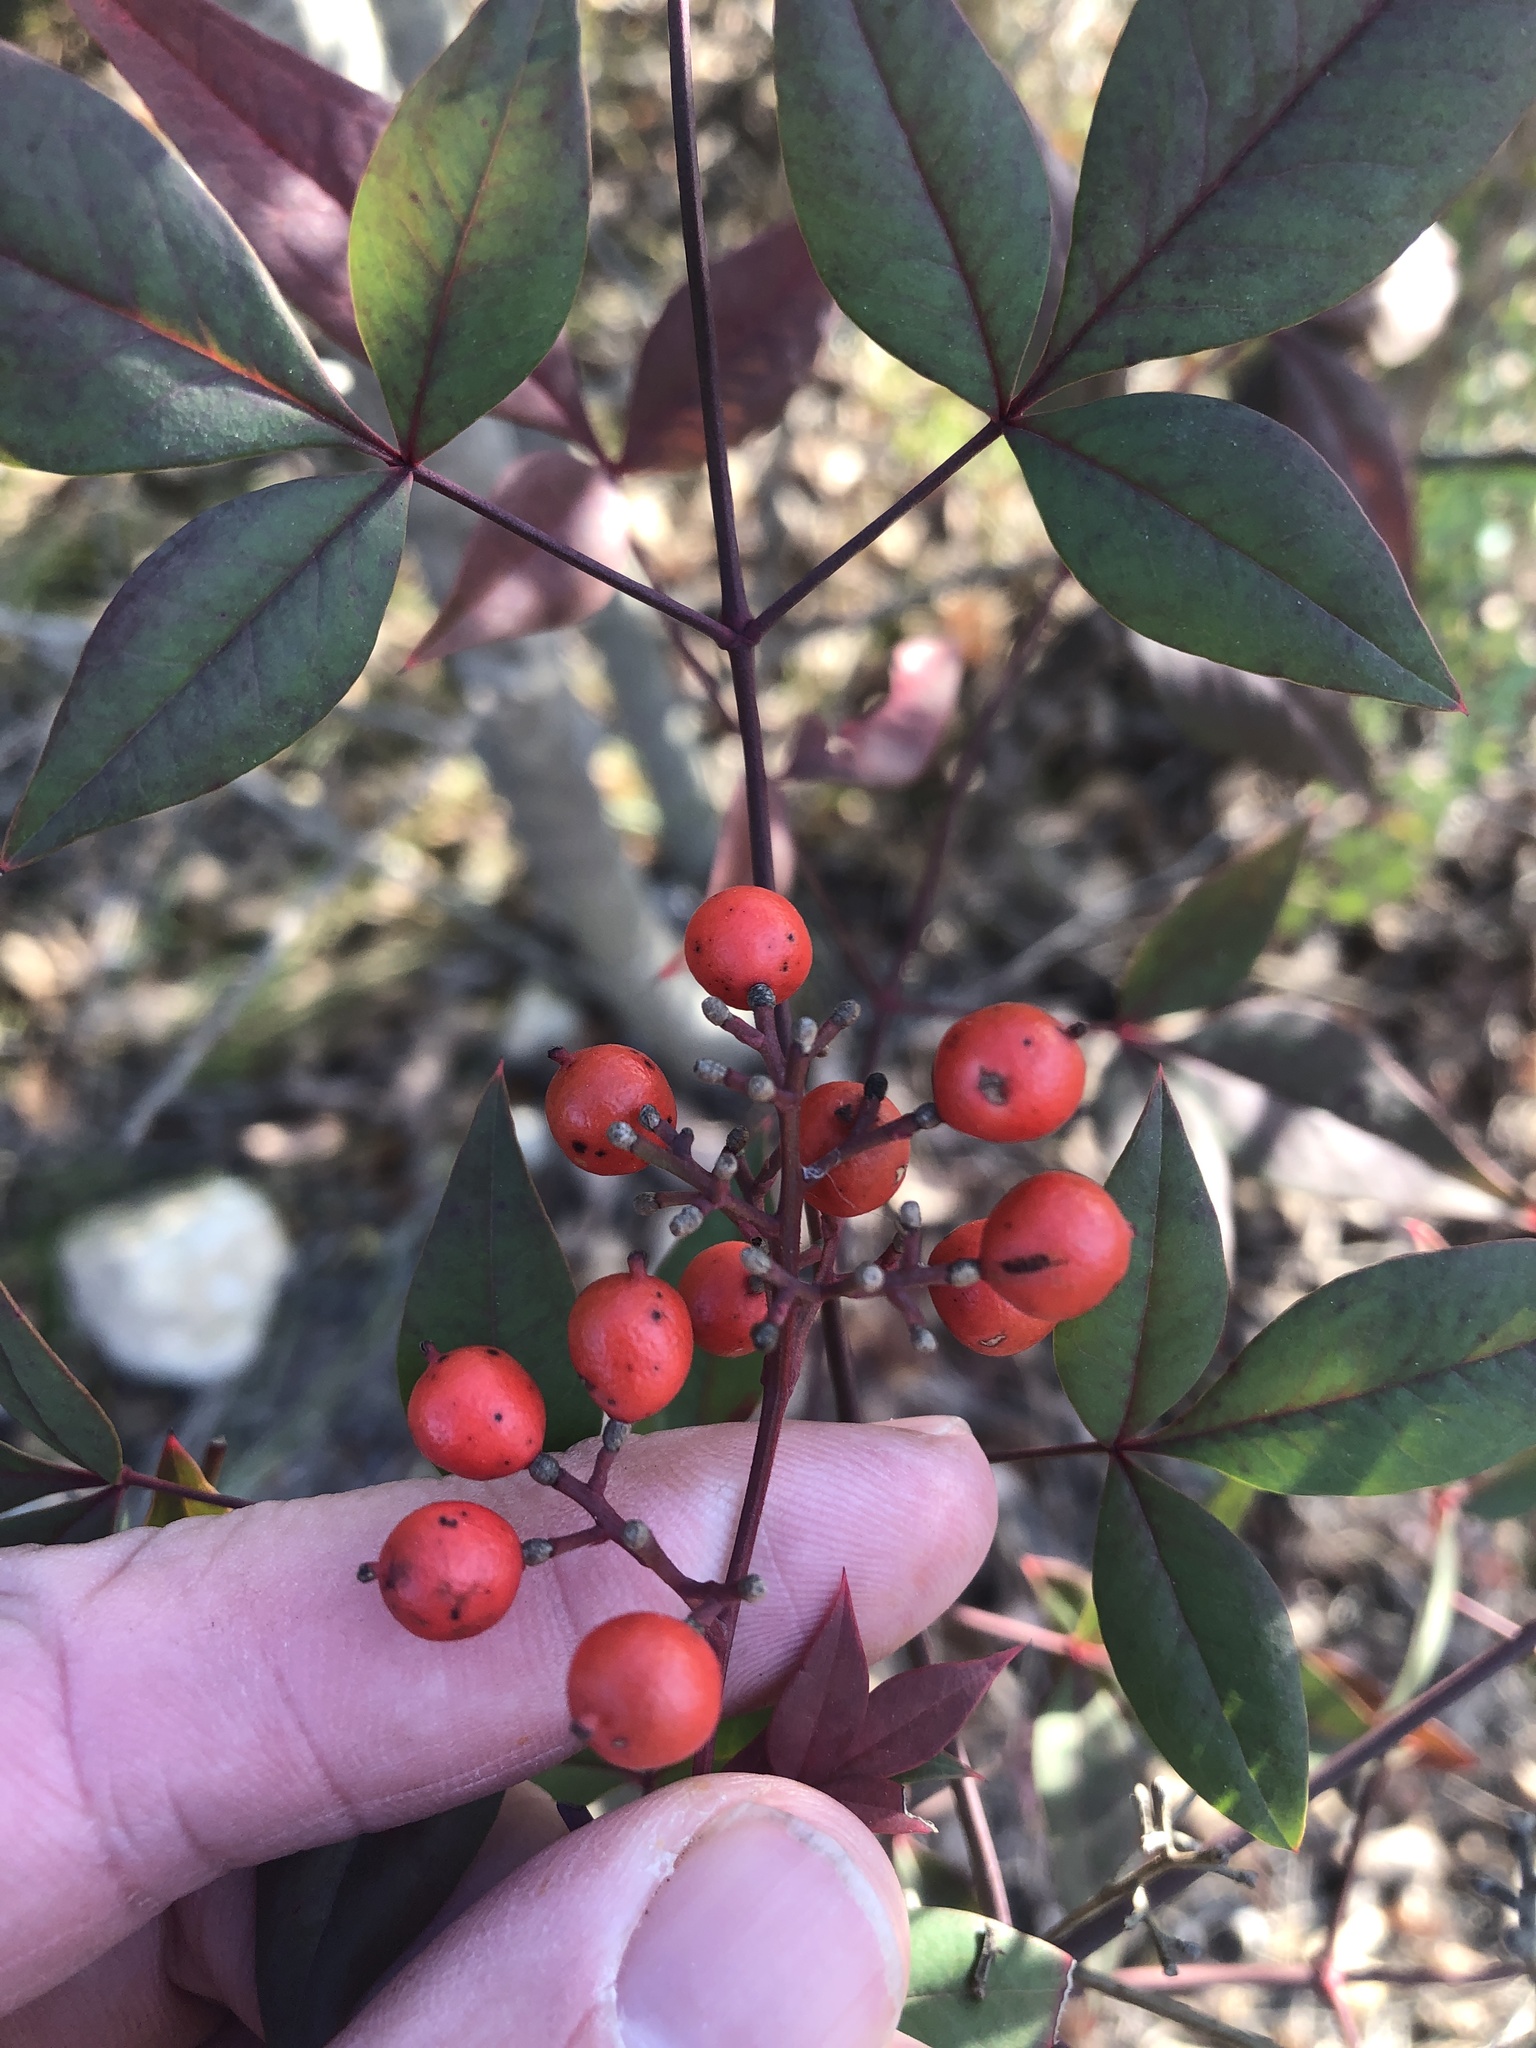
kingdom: Plantae
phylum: Tracheophyta
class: Magnoliopsida
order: Ranunculales
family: Berberidaceae
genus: Nandina
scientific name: Nandina domestica
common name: Sacred bamboo
